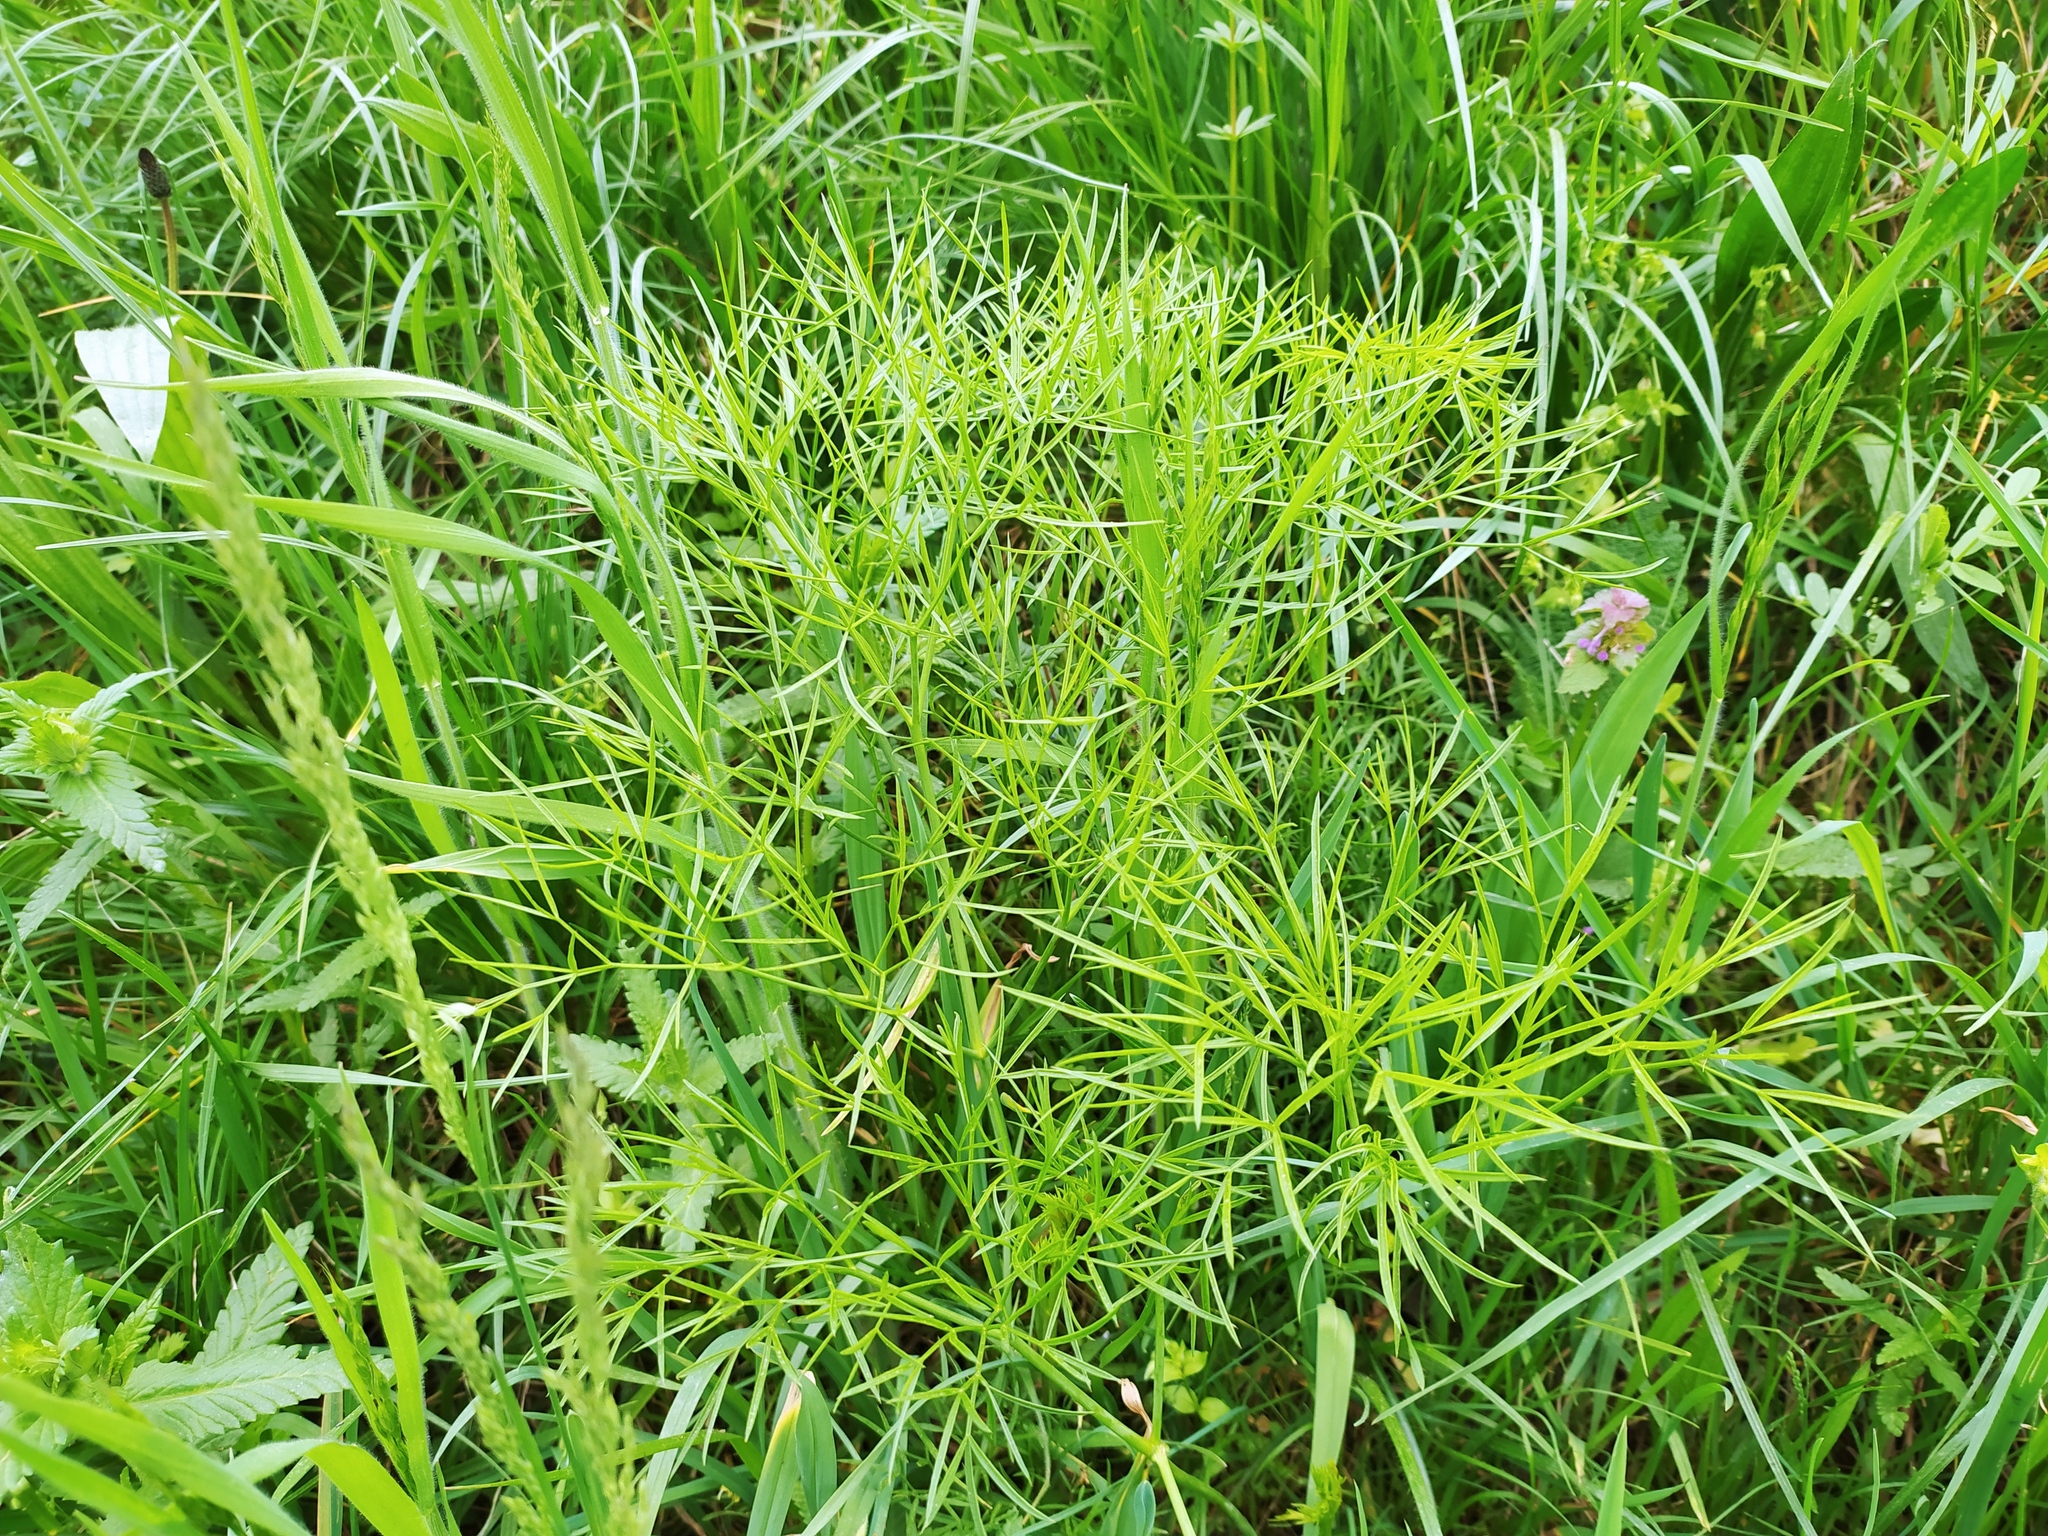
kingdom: Plantae
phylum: Tracheophyta
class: Magnoliopsida
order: Apiales
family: Apiaceae
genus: Peucedanum
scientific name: Peucedanum officinale
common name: Sulphurweed
